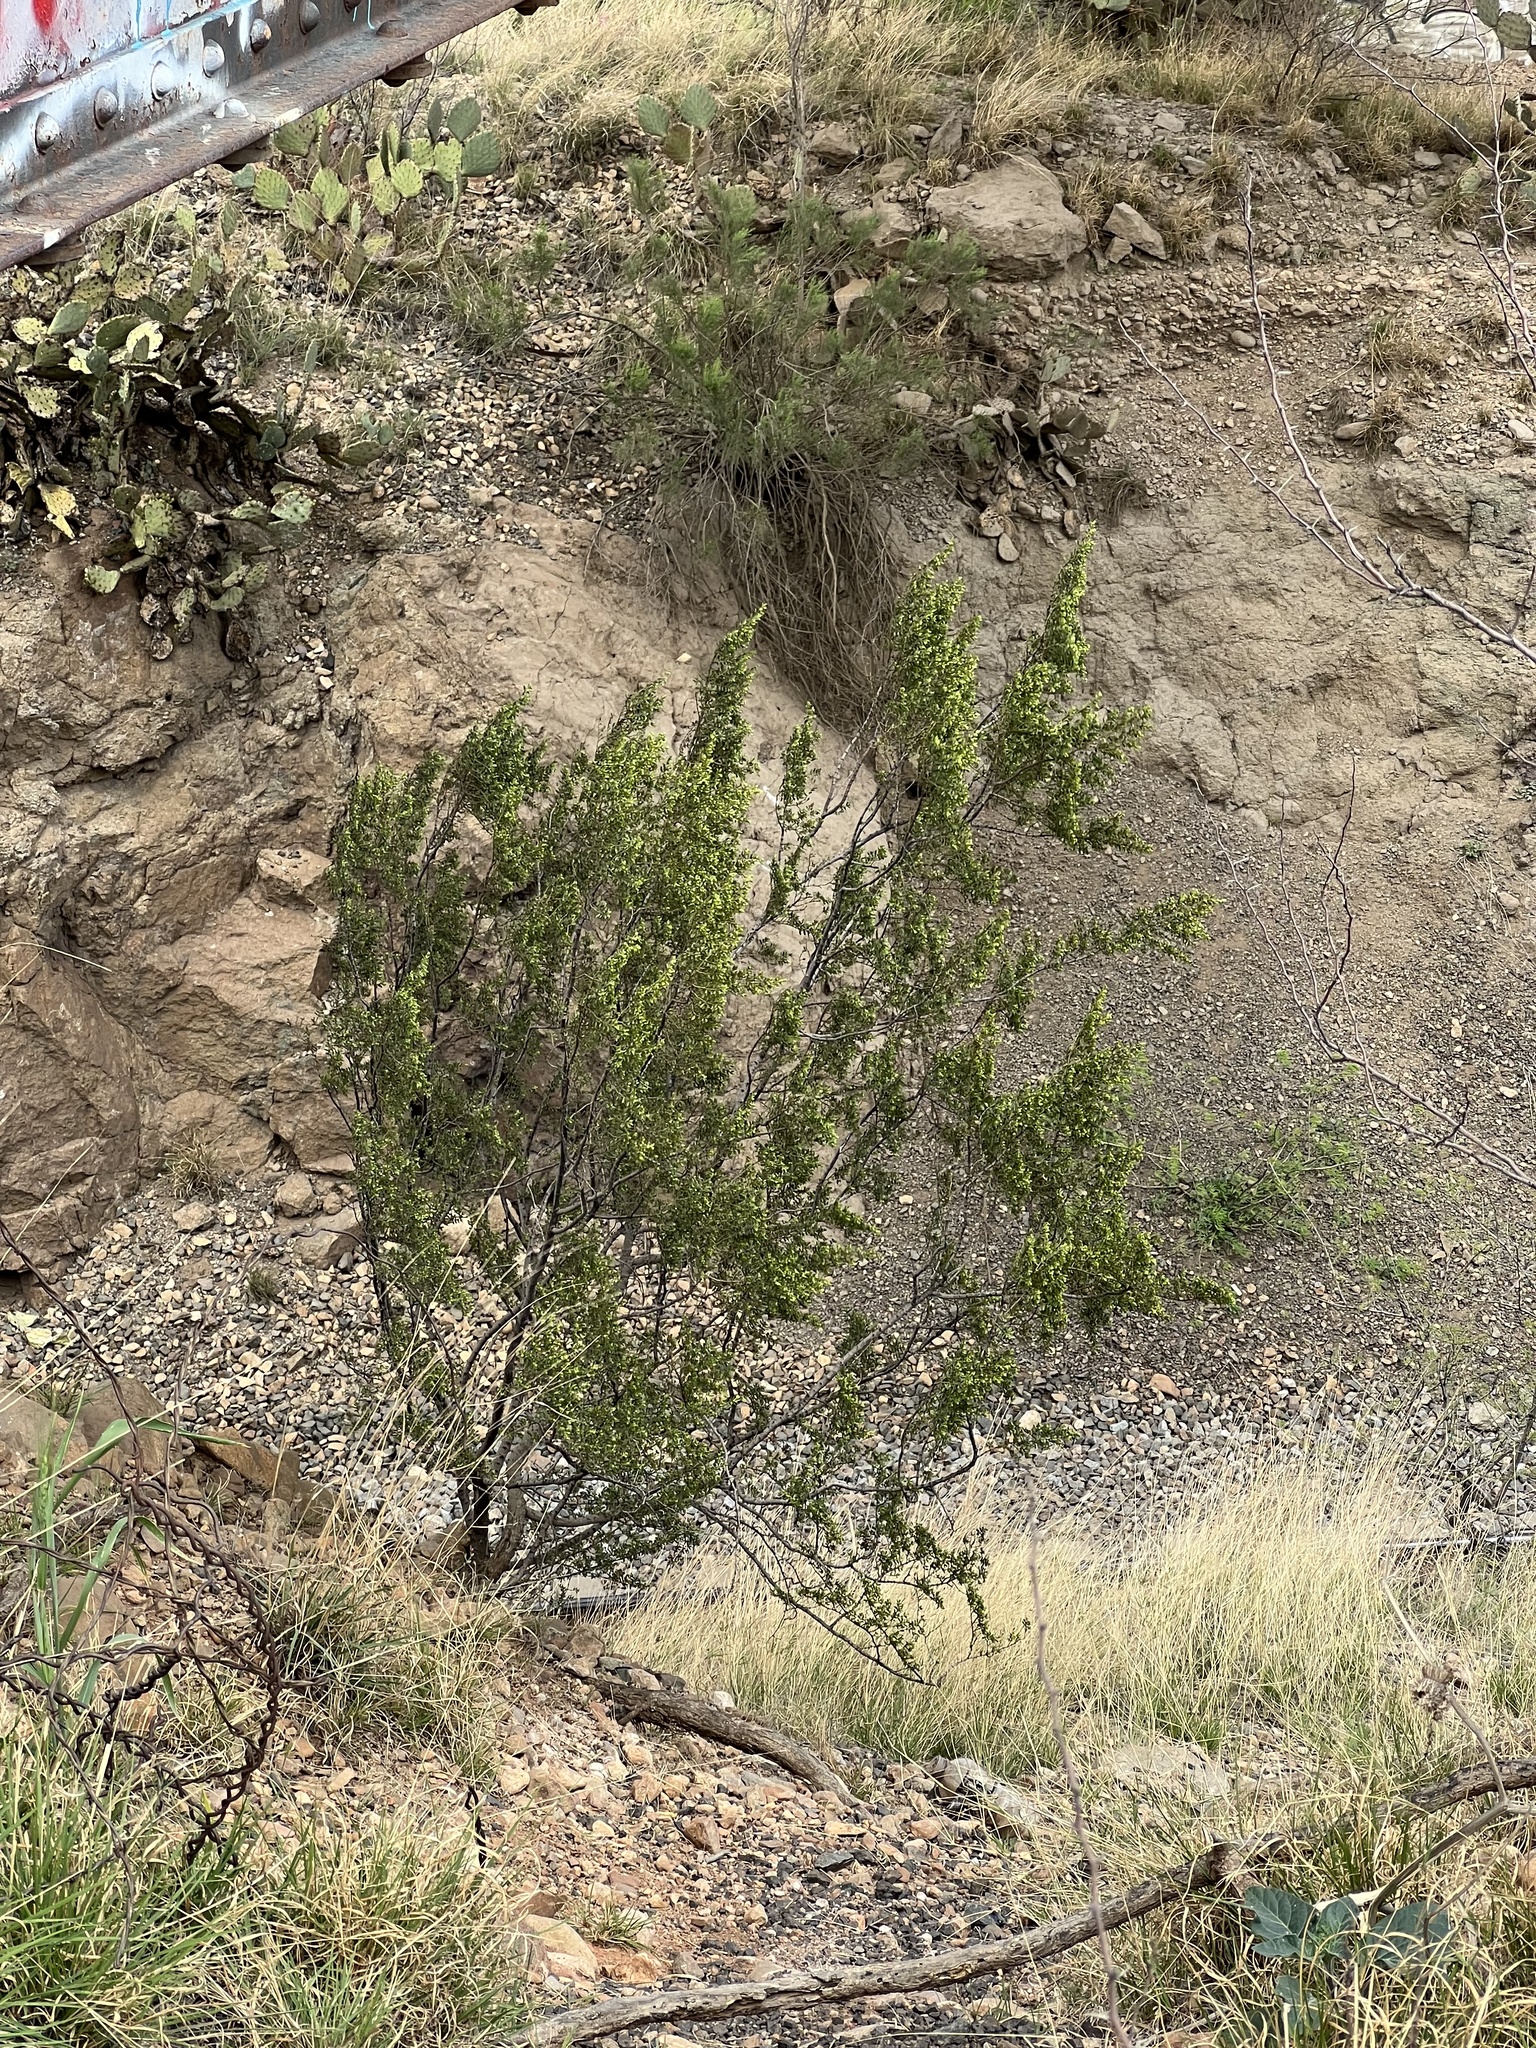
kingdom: Plantae
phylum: Tracheophyta
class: Magnoliopsida
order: Zygophyllales
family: Zygophyllaceae
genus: Larrea
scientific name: Larrea tridentata
